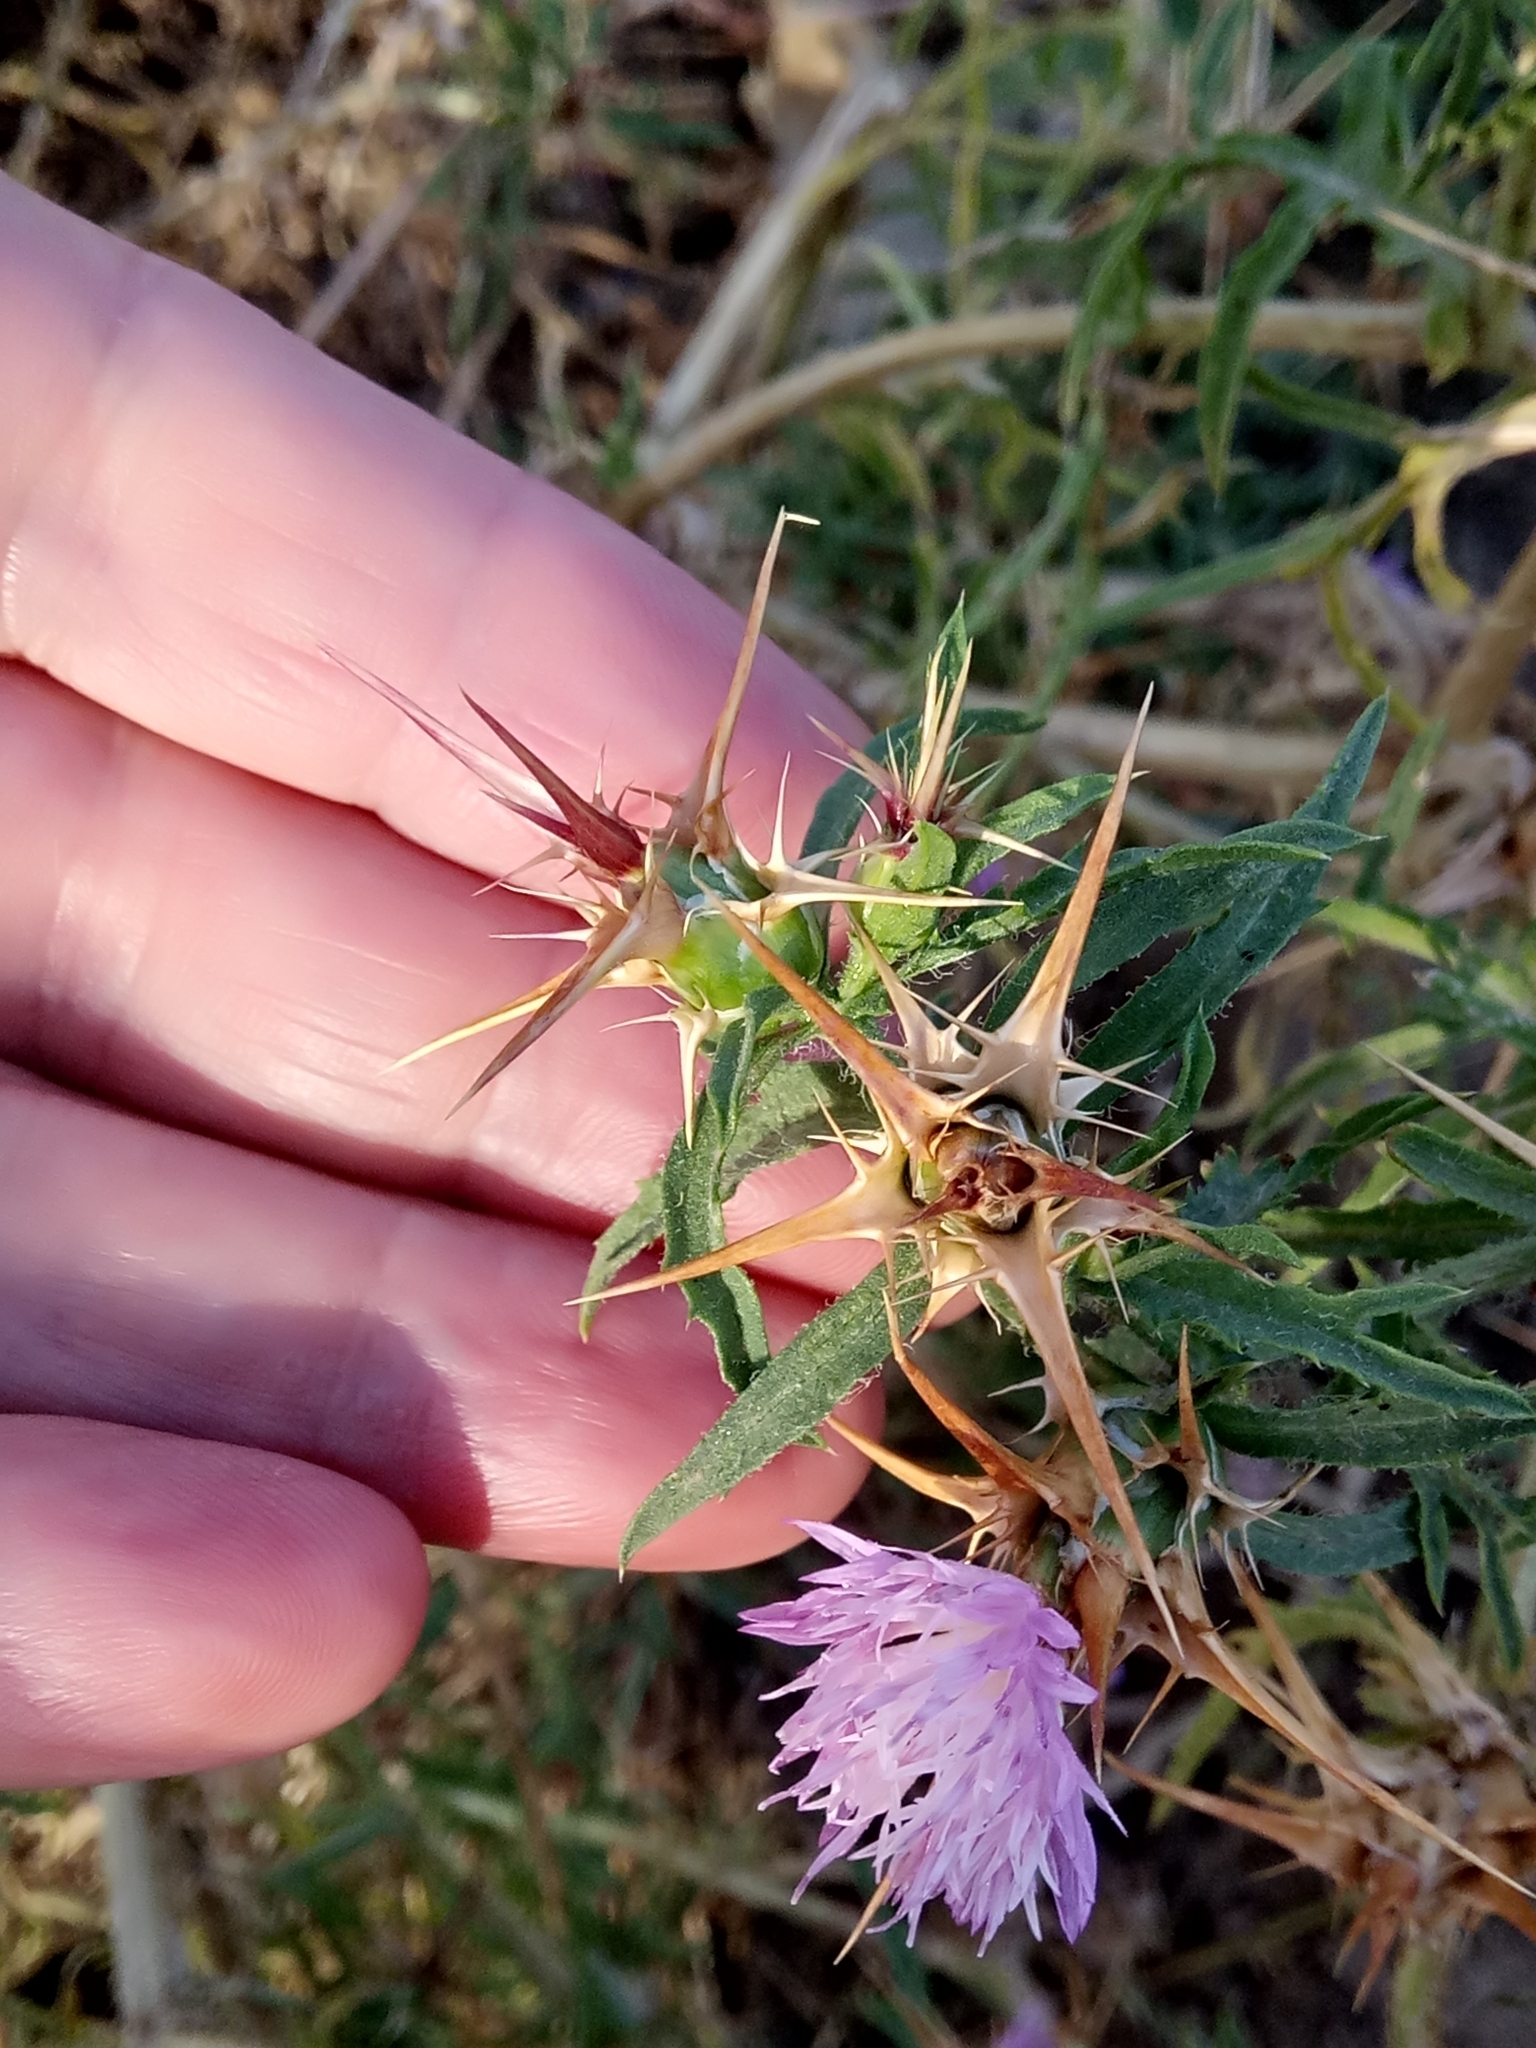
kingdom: Plantae
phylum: Tracheophyta
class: Magnoliopsida
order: Asterales
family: Asteraceae
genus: Centaurea
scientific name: Centaurea calcitrapa
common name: Red star-thistle
